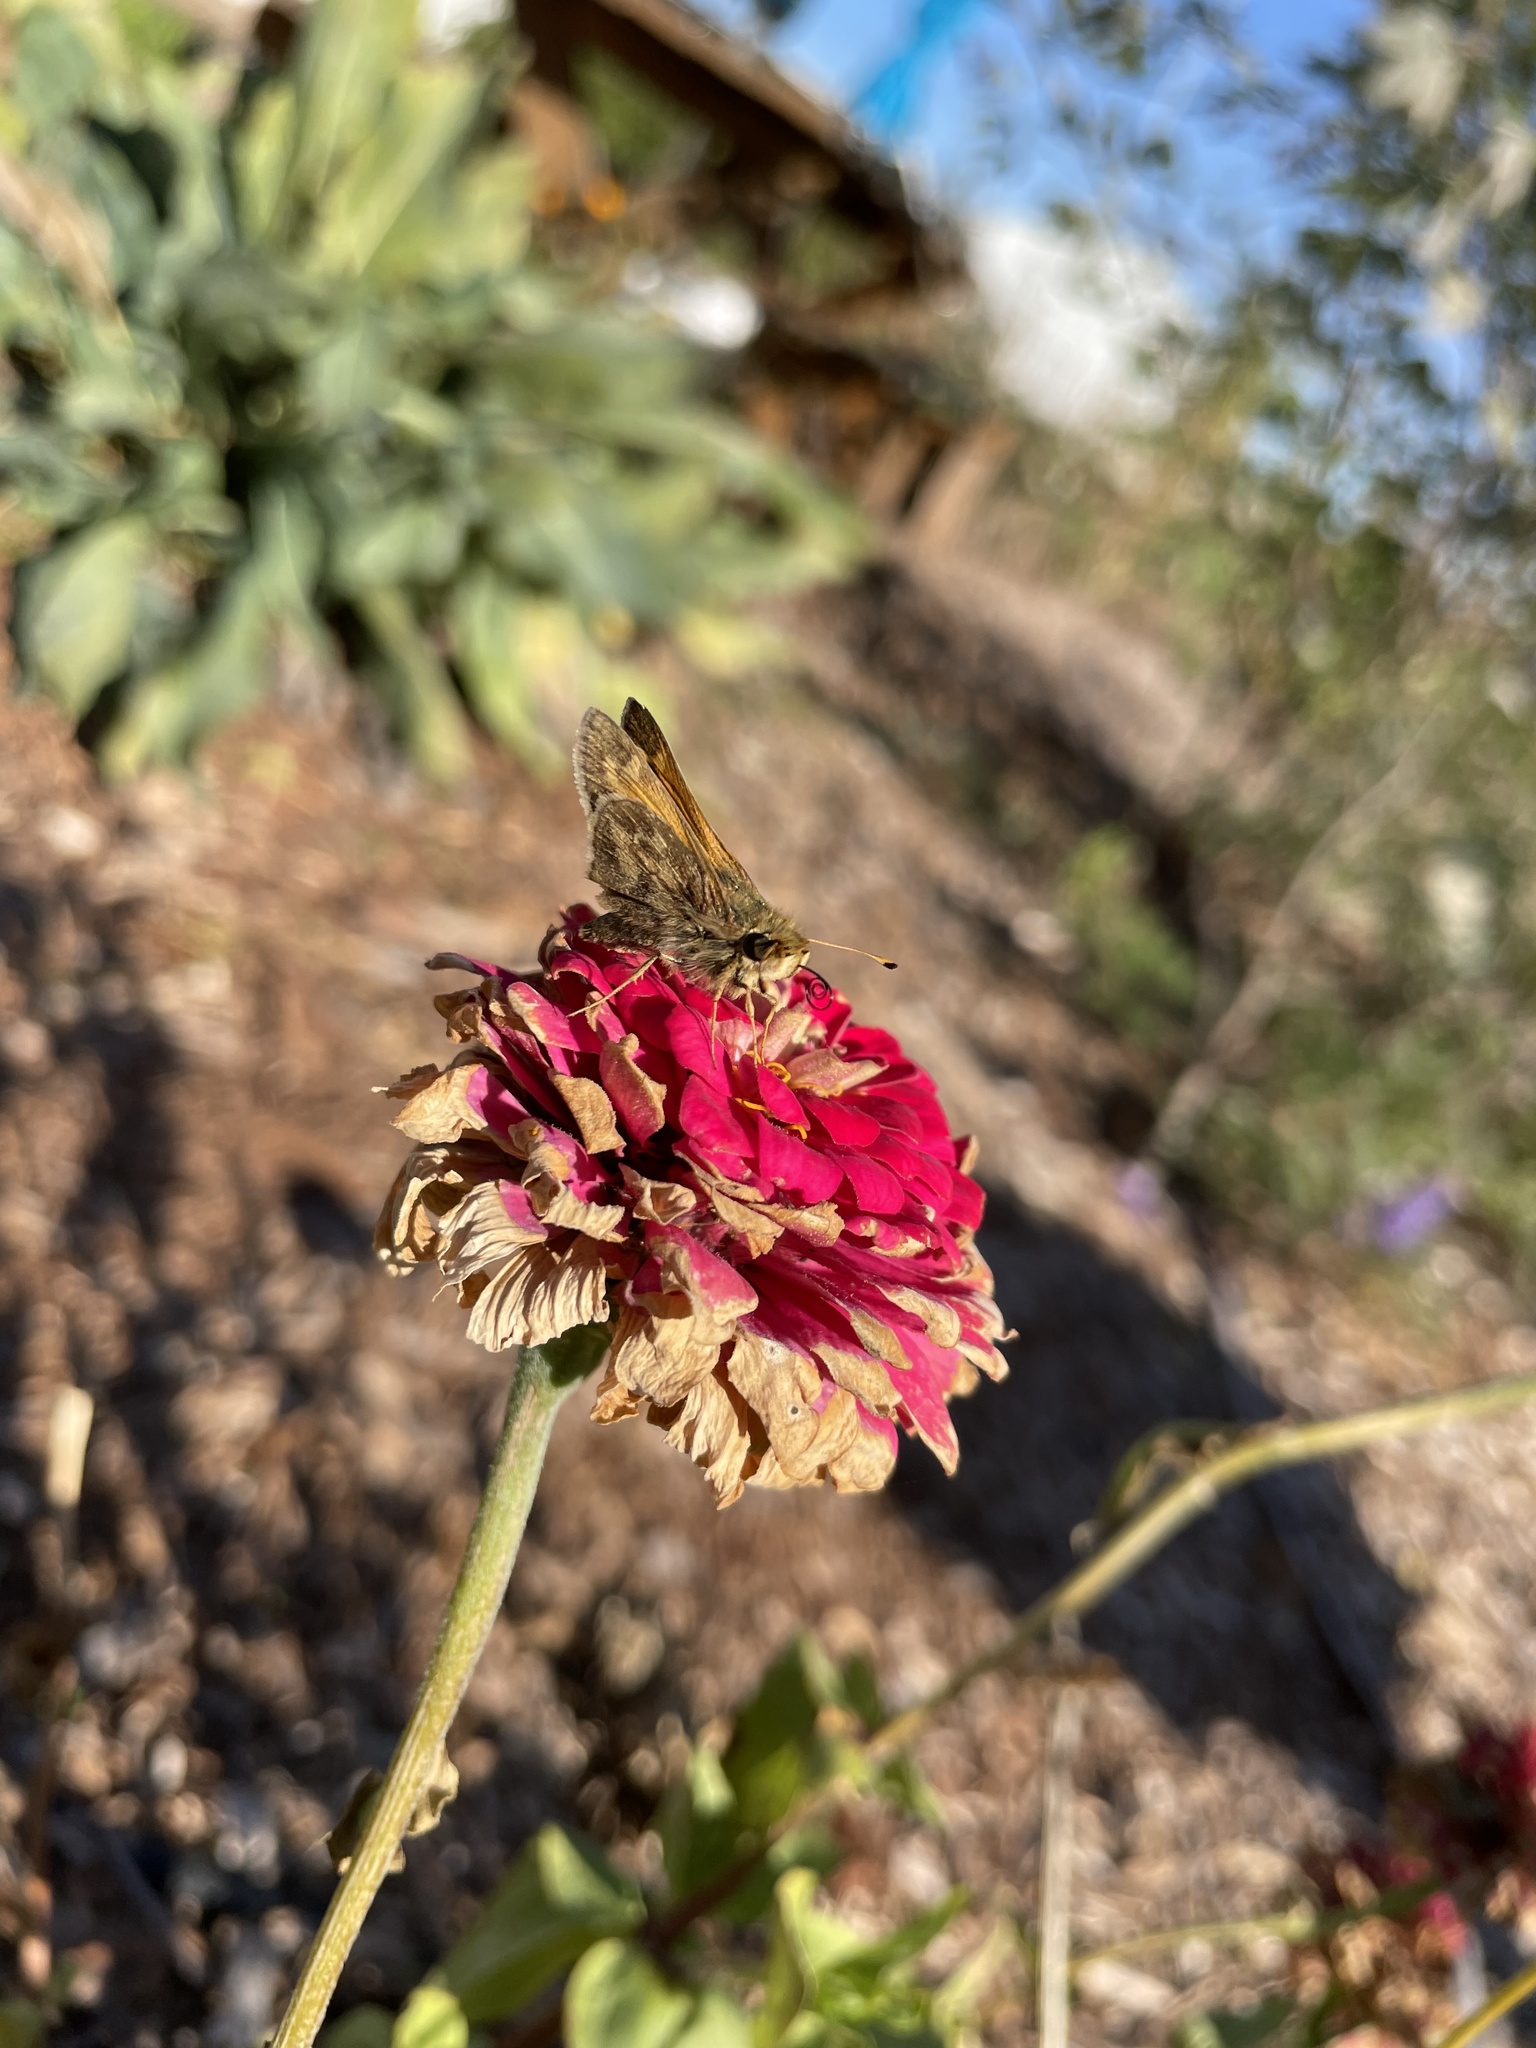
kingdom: Animalia
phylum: Arthropoda
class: Insecta
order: Lepidoptera
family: Hesperiidae
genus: Atalopedes
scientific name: Atalopedes
